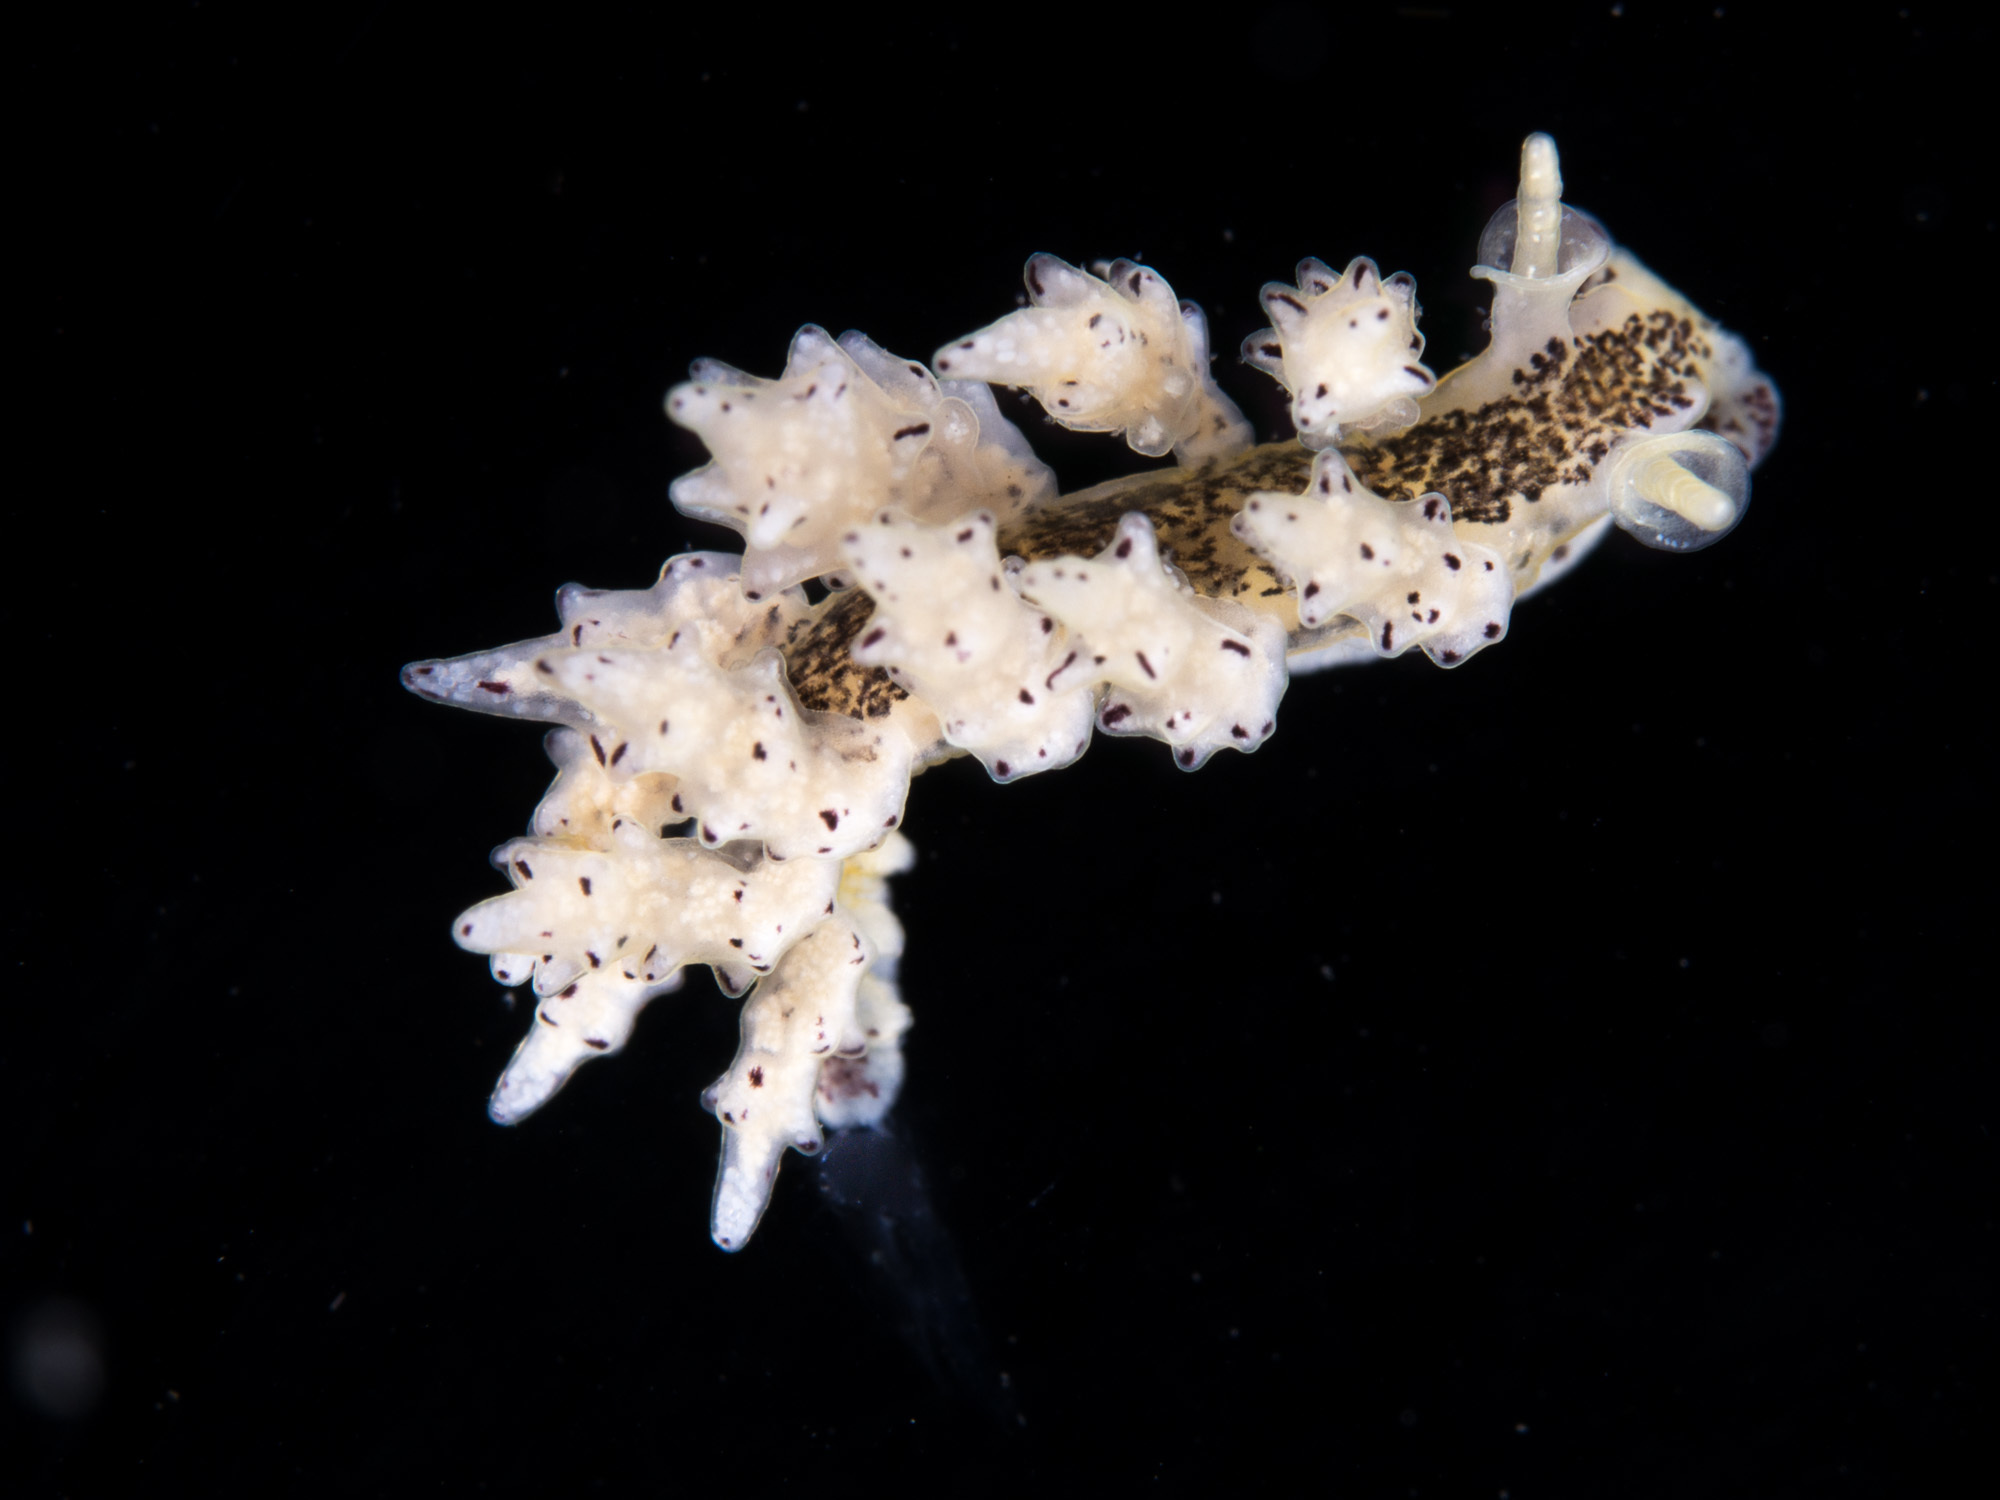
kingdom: Animalia
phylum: Mollusca
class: Gastropoda
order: Nudibranchia
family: Dotidae
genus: Doto
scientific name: Doto koenneckeri
